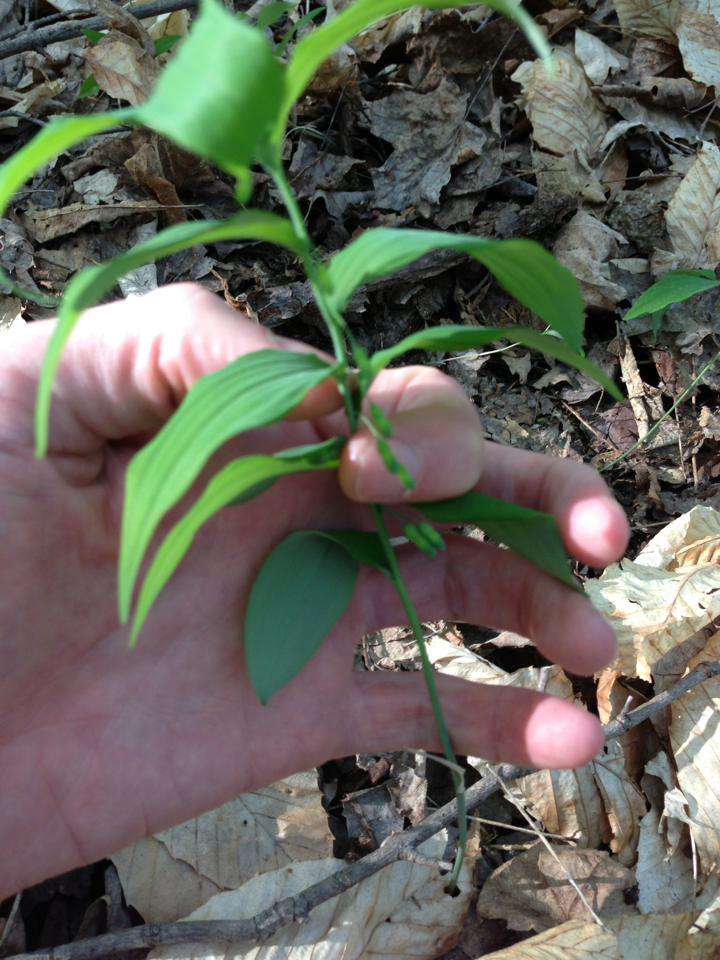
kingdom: Plantae
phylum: Tracheophyta
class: Liliopsida
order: Asparagales
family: Asparagaceae
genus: Polygonatum
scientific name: Polygonatum pubescens
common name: Downy solomon's seal
